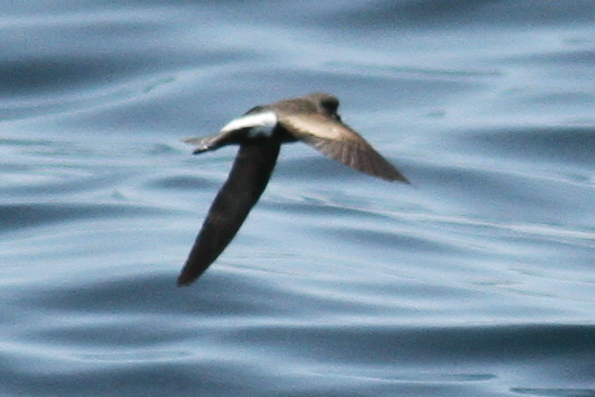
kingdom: Animalia
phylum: Chordata
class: Aves
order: Procellariiformes
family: Hydrobatidae
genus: Oceanites
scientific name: Oceanites oceanicus
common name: Wilson's storm petrel
